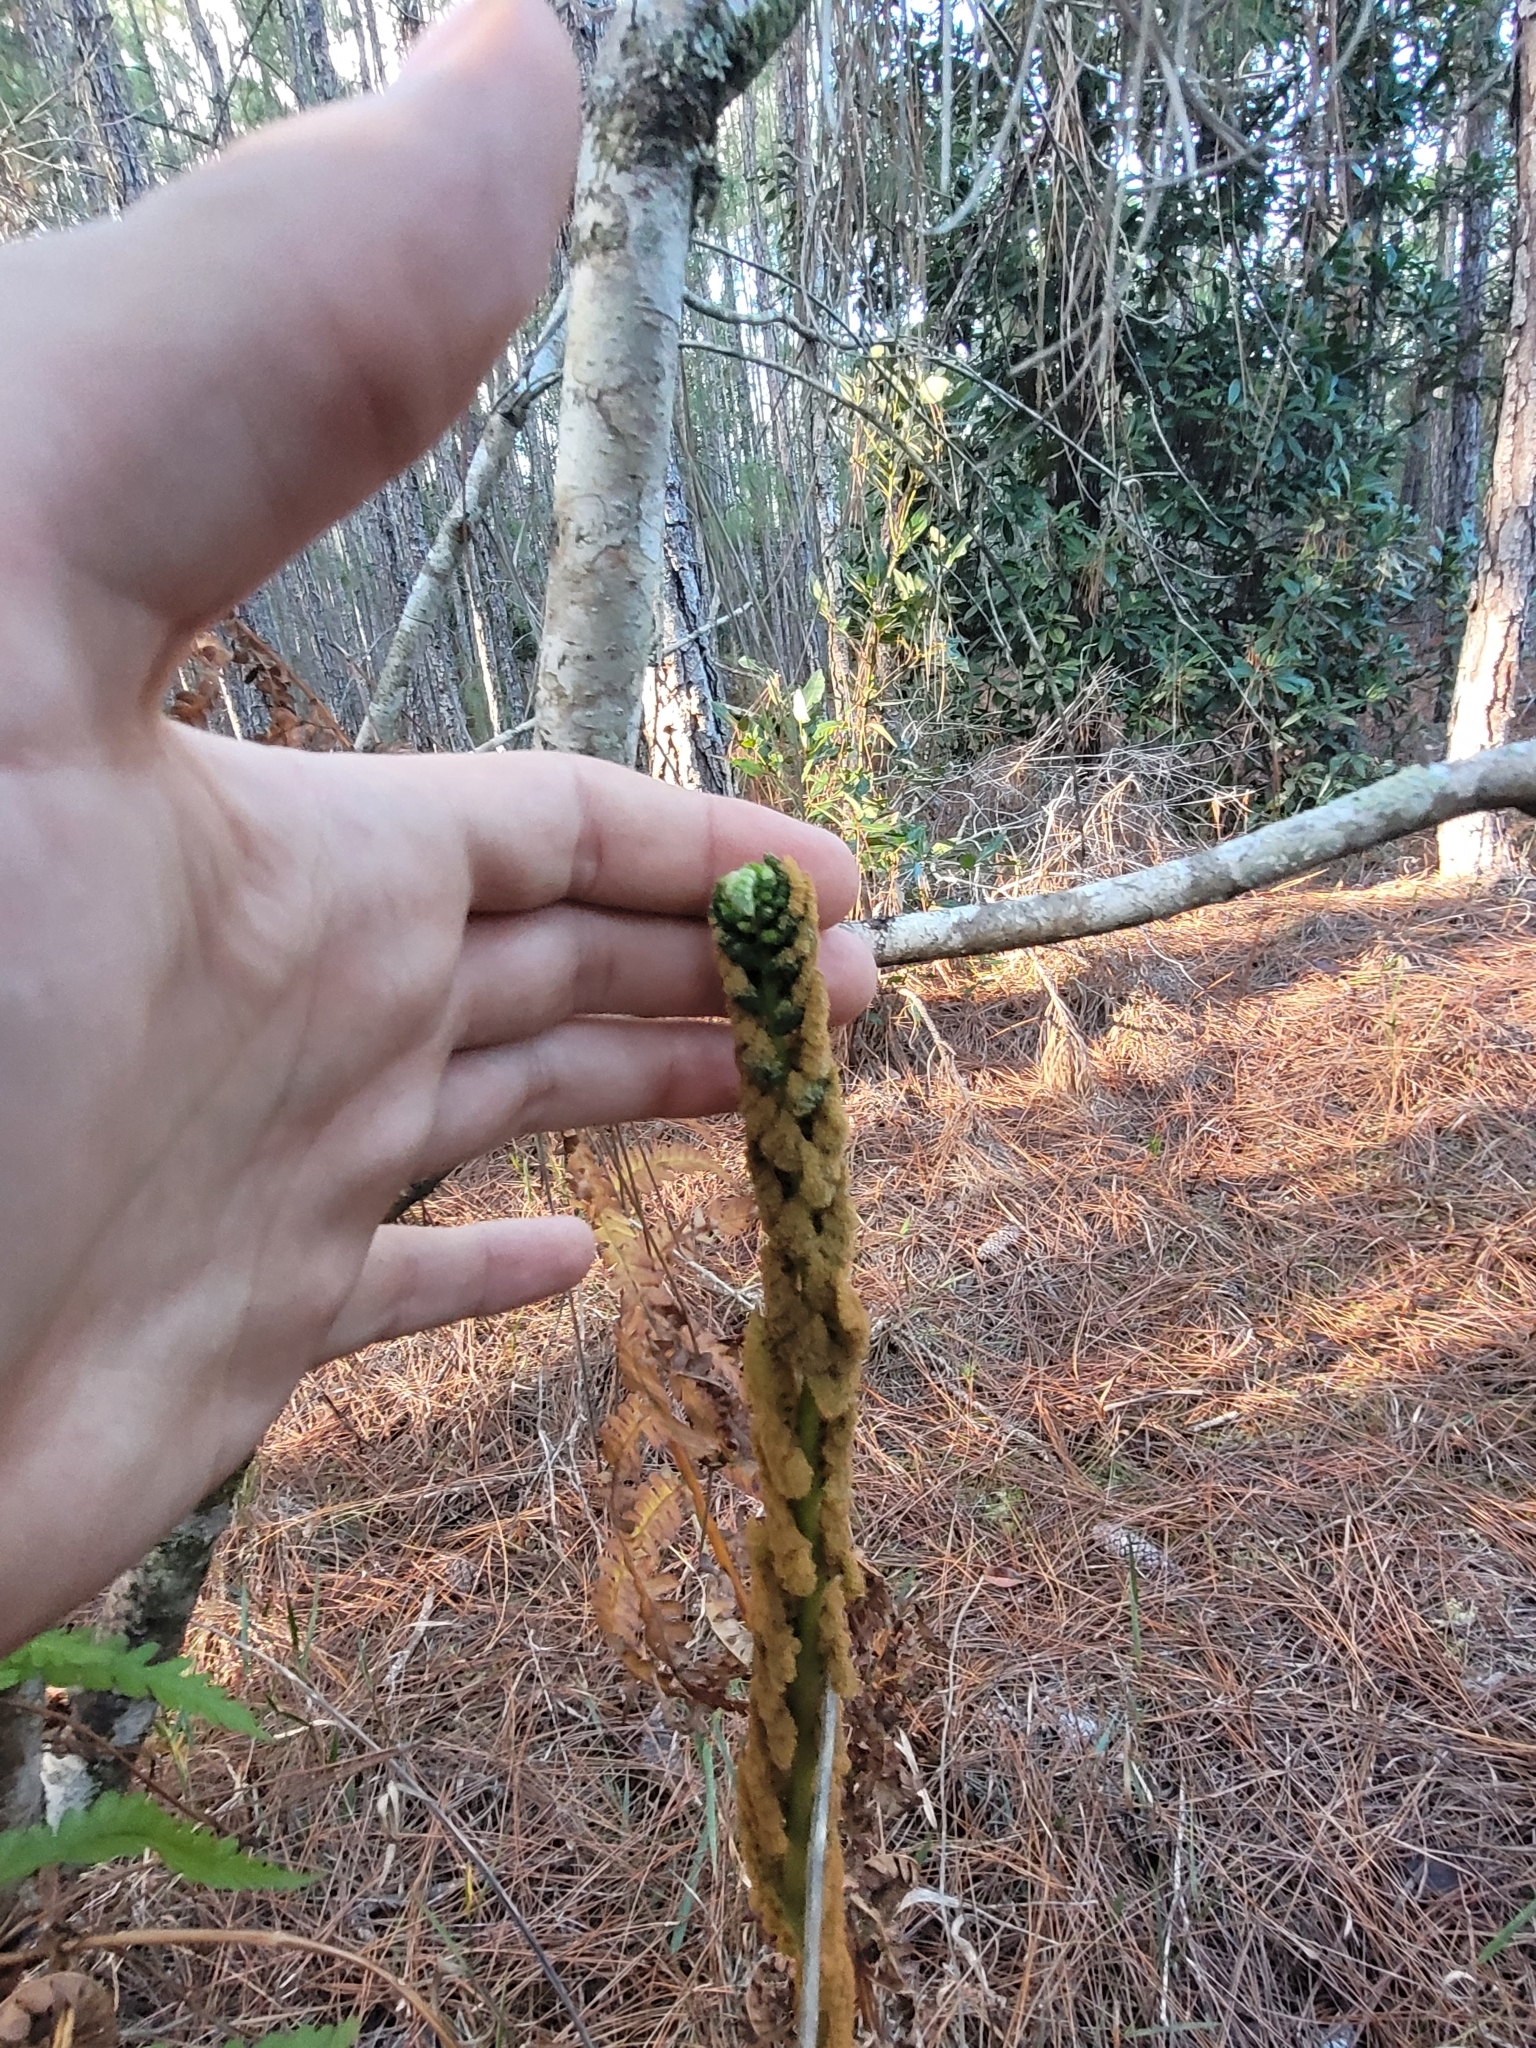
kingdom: Plantae
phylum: Tracheophyta
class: Polypodiopsida
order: Osmundales
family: Osmundaceae
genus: Osmundastrum
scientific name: Osmundastrum cinnamomeum
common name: Cinnamon fern
